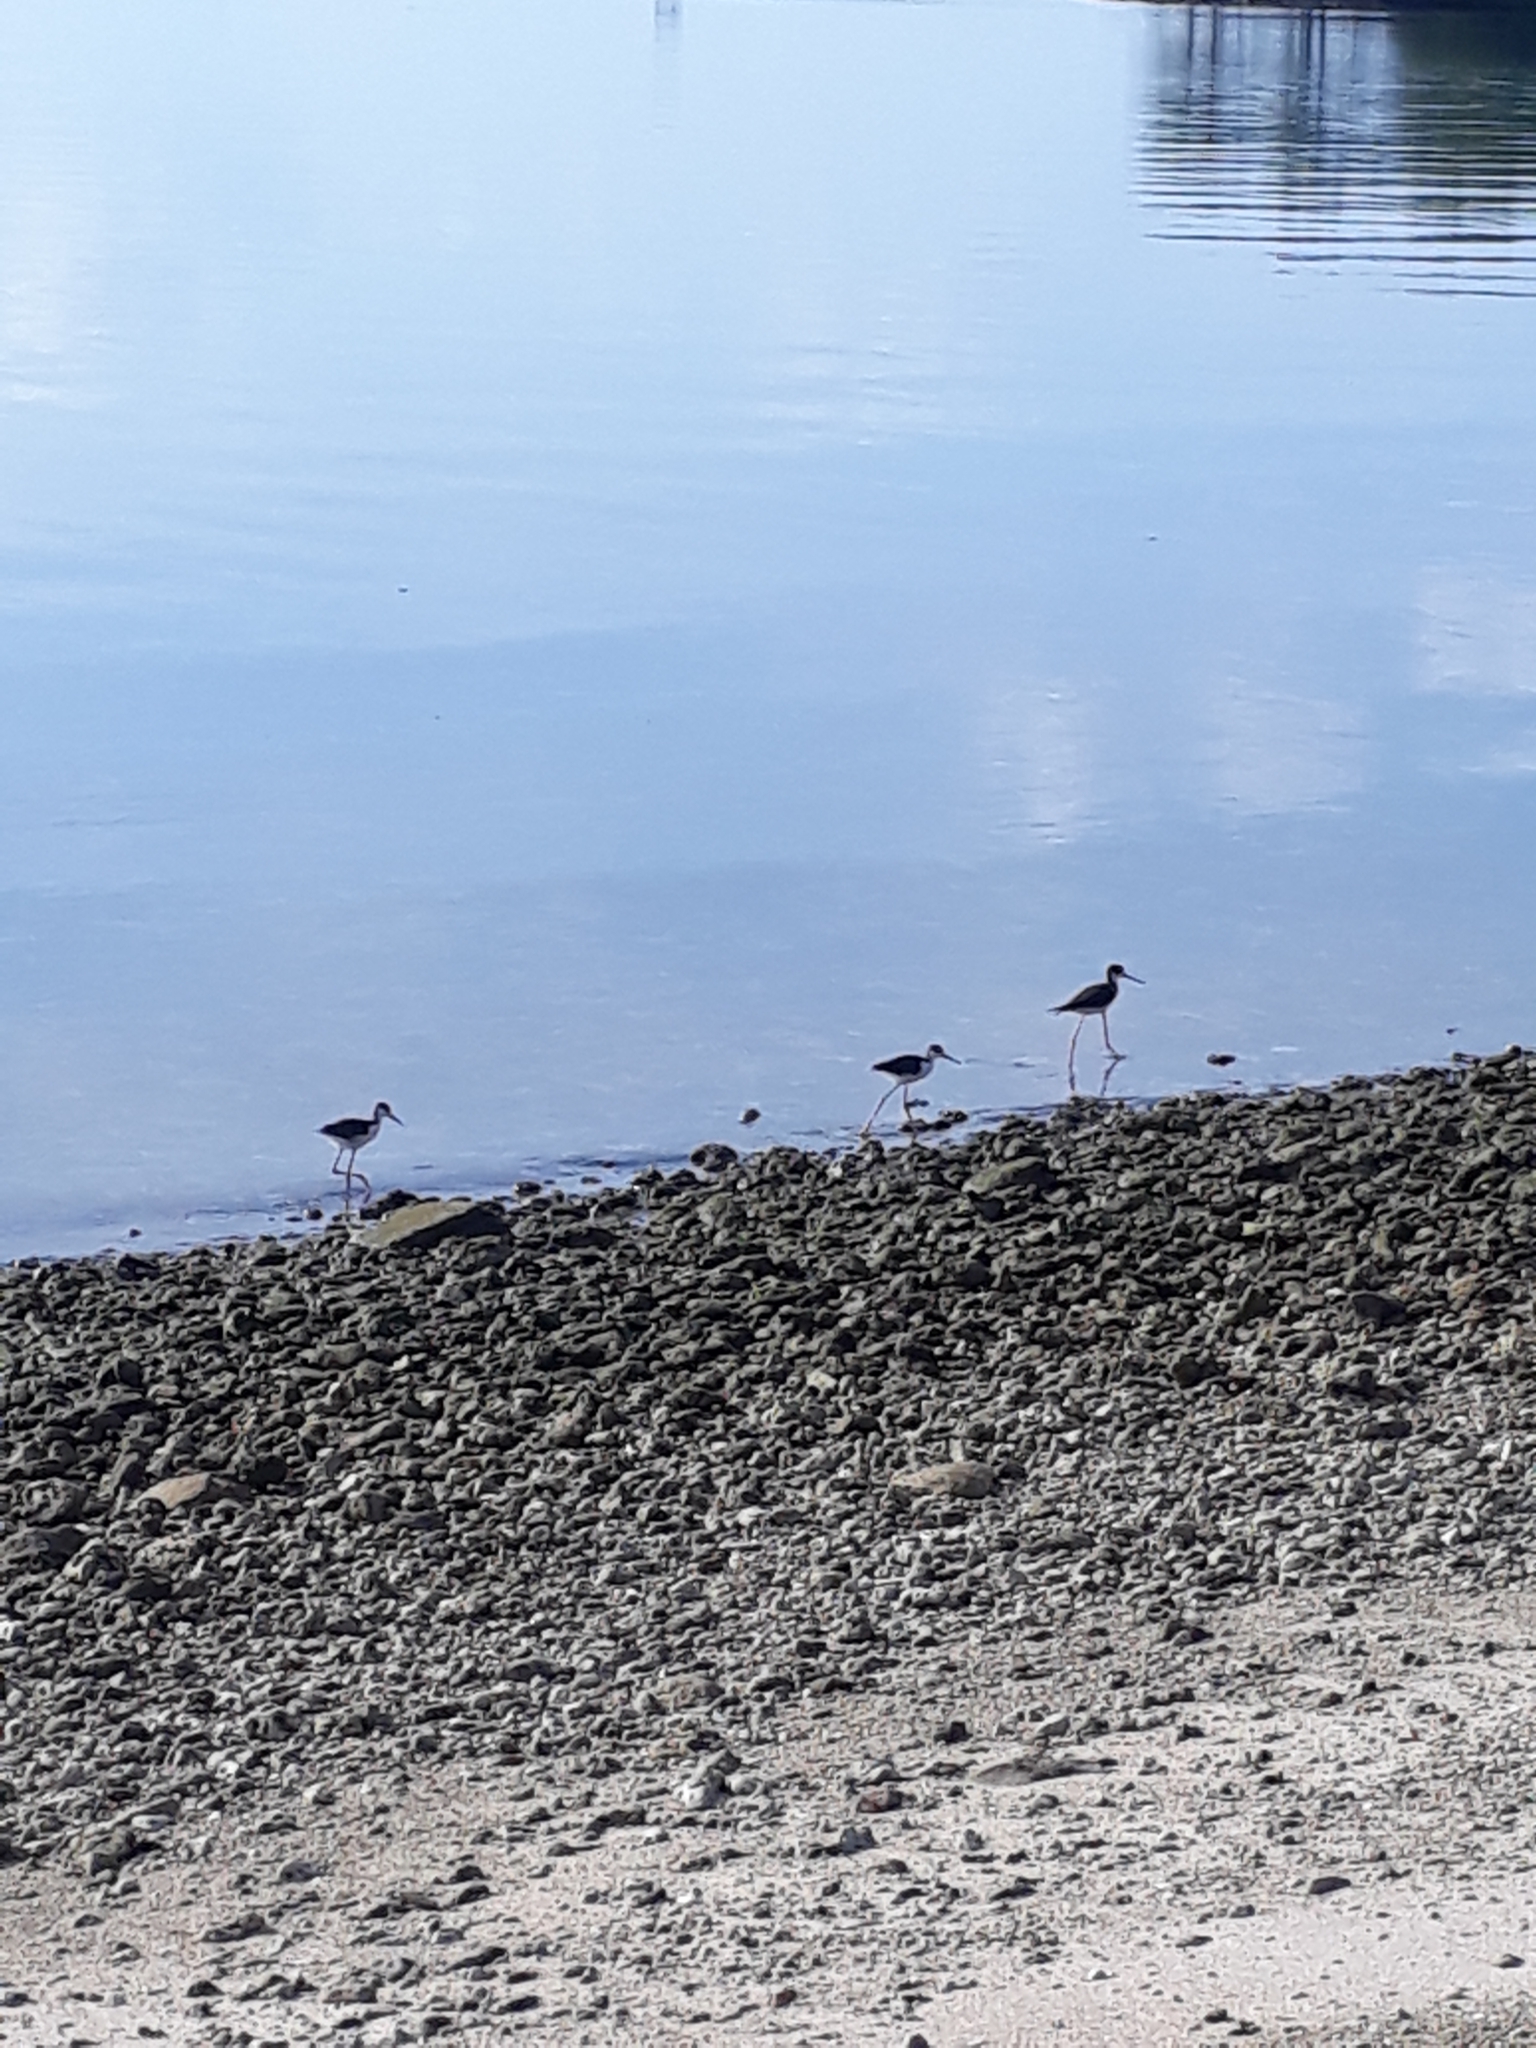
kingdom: Animalia
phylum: Chordata
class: Aves
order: Charadriiformes
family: Recurvirostridae
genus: Himantopus
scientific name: Himantopus mexicanus
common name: Black-necked stilt
